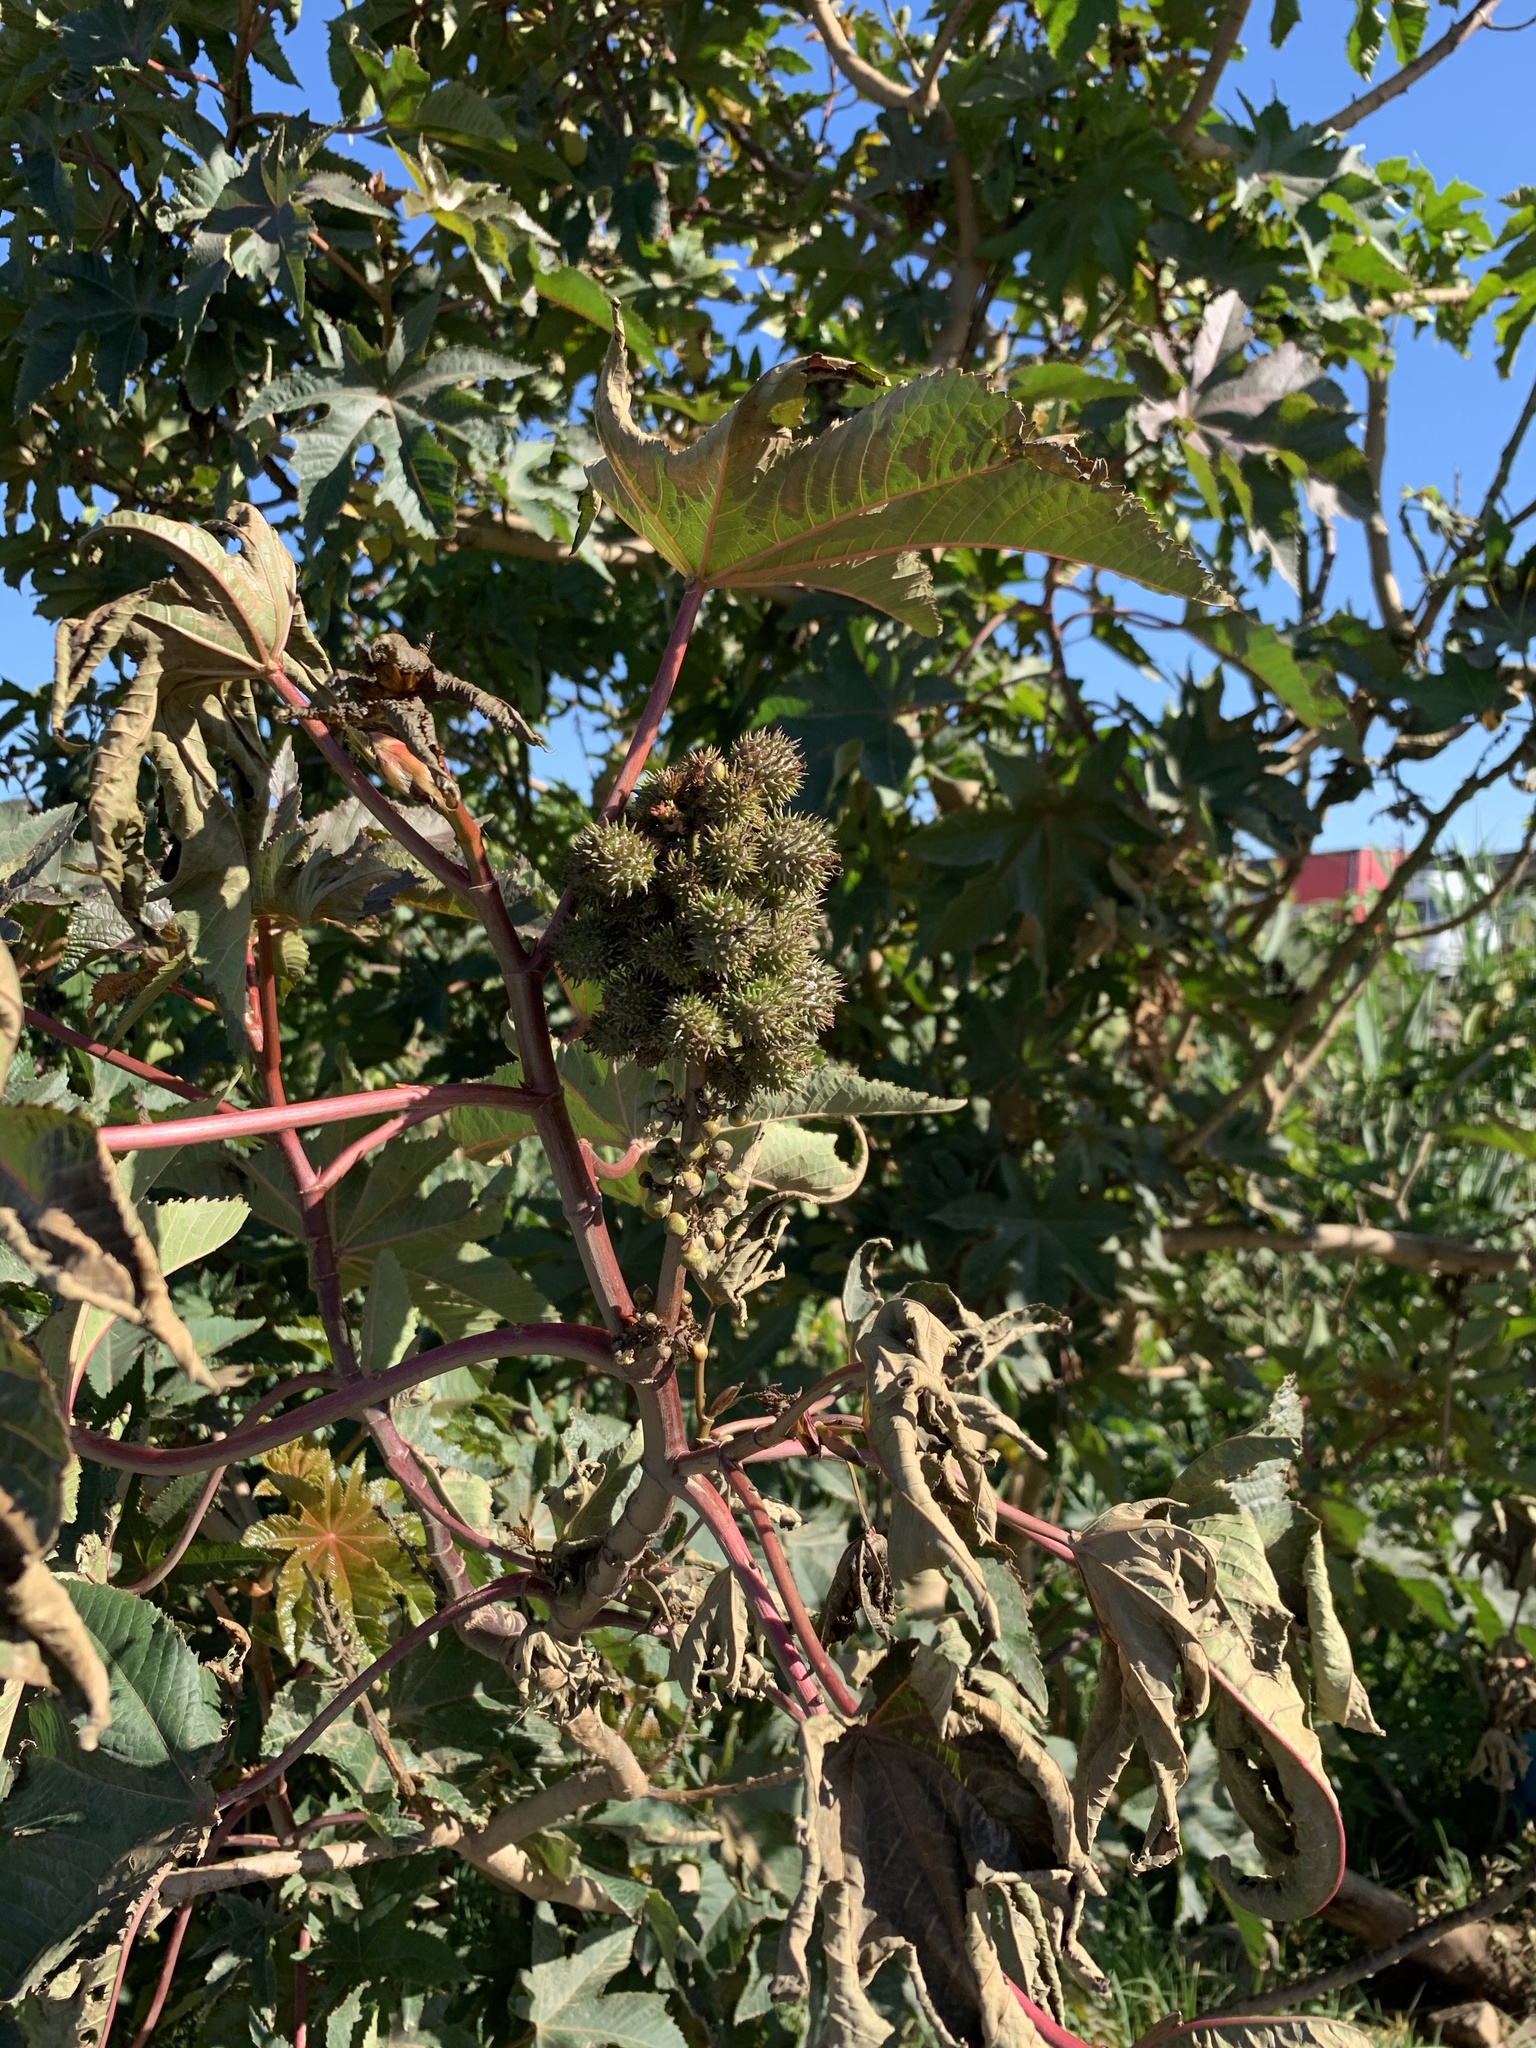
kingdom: Plantae
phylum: Tracheophyta
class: Magnoliopsida
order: Malpighiales
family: Euphorbiaceae
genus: Ricinus
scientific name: Ricinus communis
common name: Castor-oil-plant
